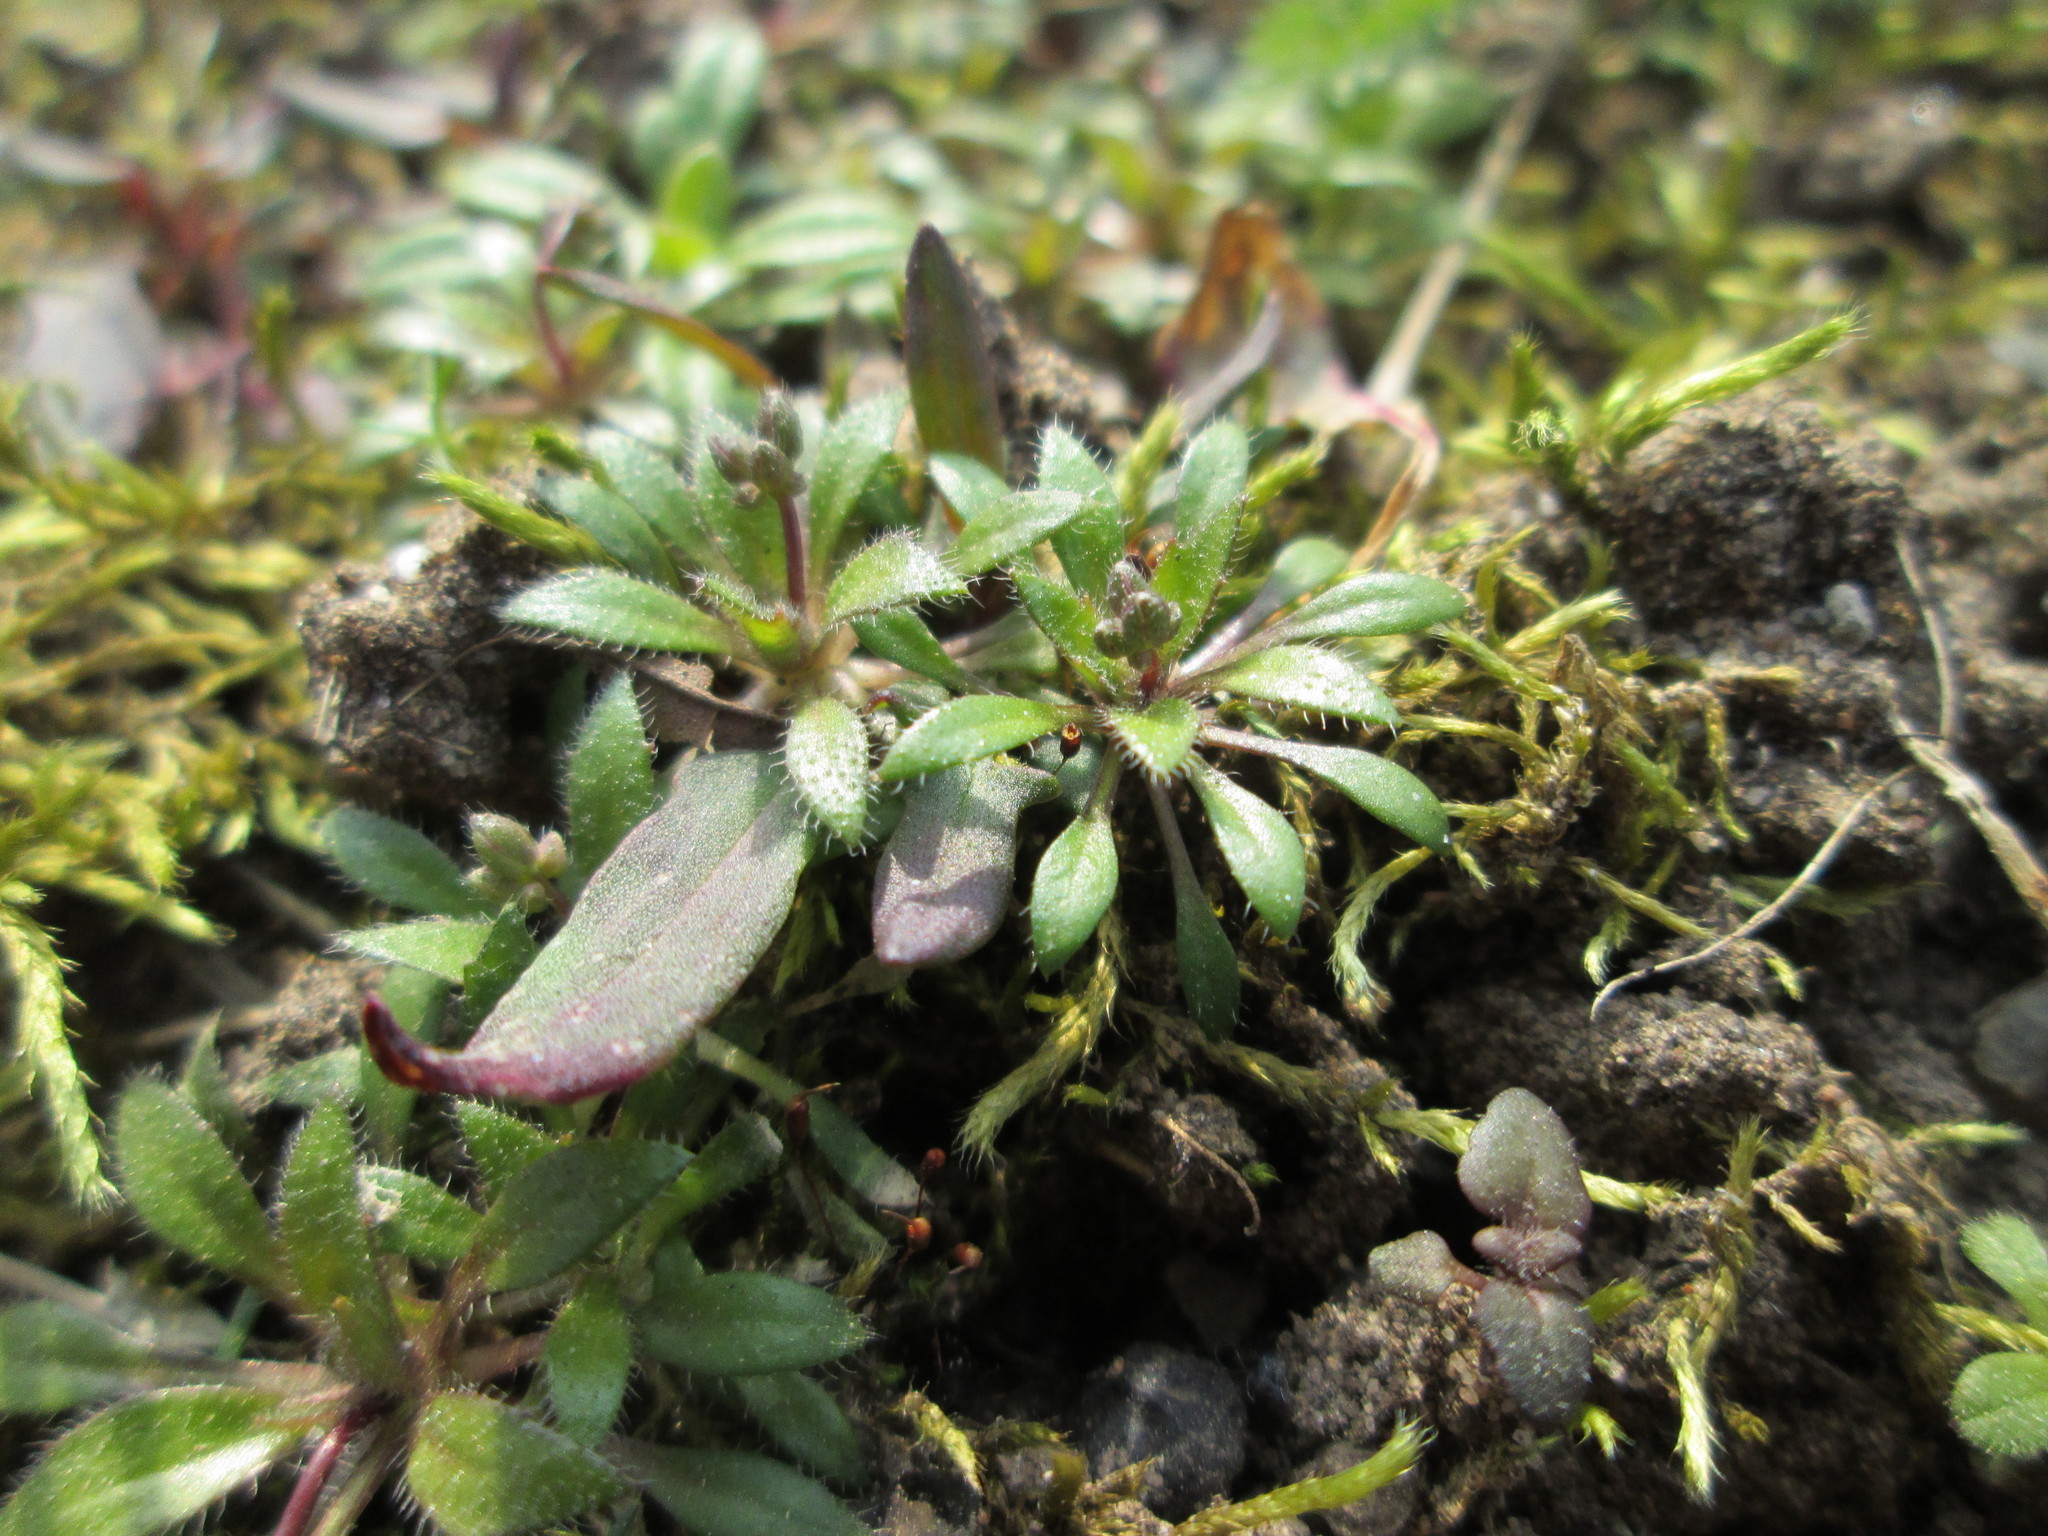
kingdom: Plantae
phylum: Tracheophyta
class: Magnoliopsida
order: Brassicales
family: Brassicaceae
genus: Draba
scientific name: Draba verna
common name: Spring draba
